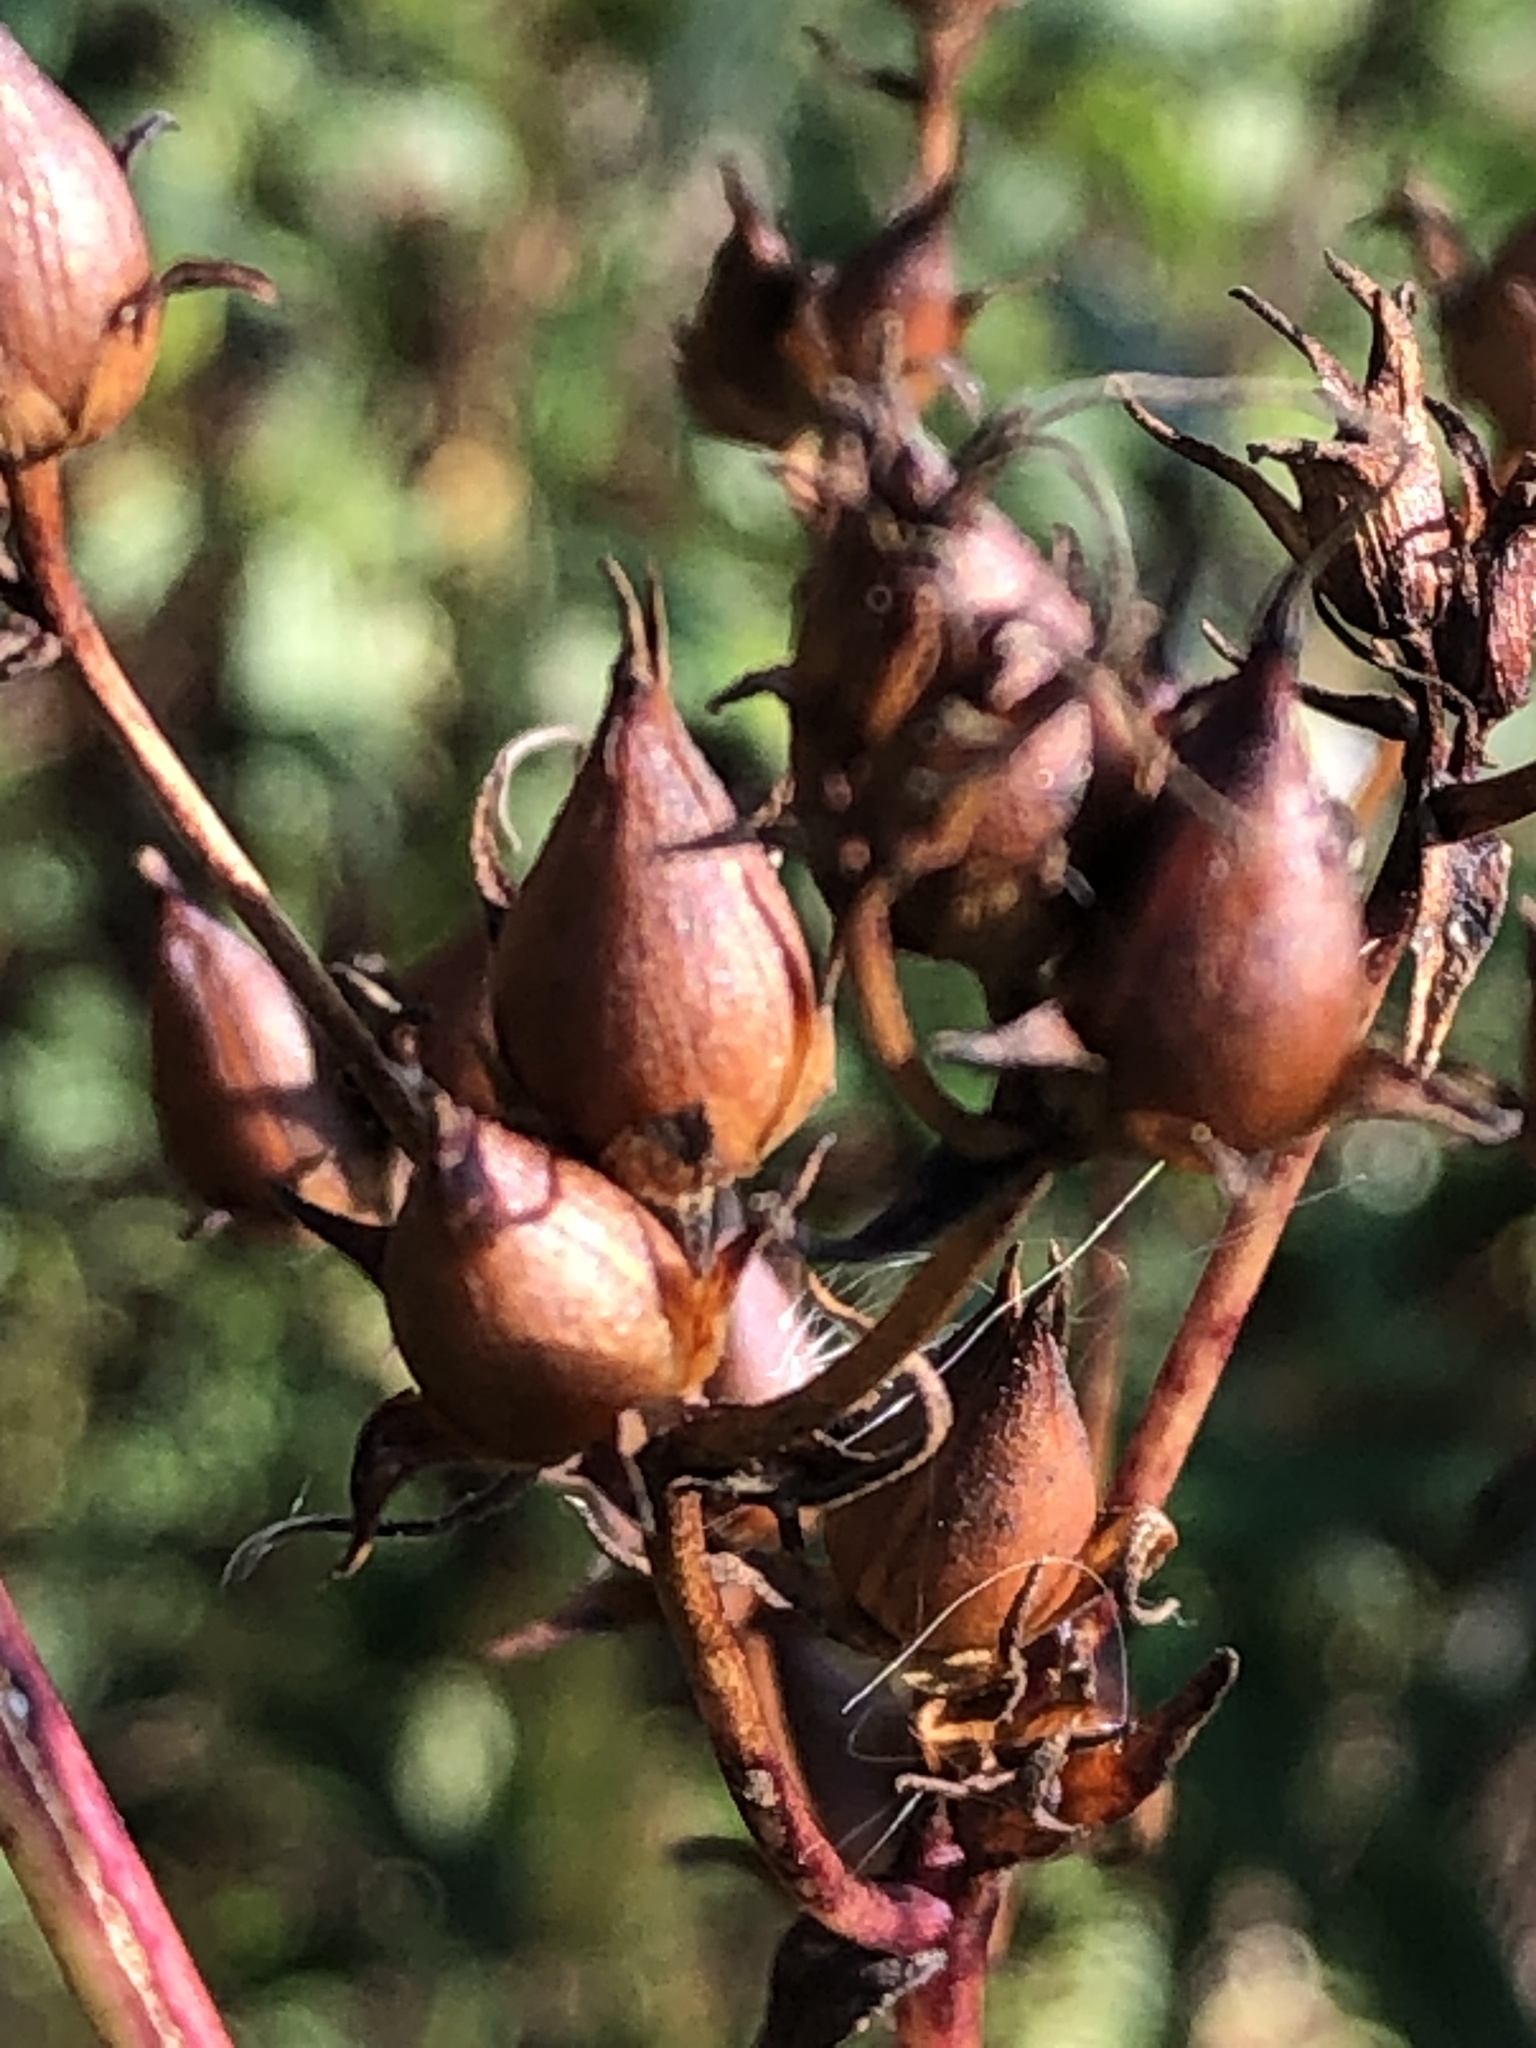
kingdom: Plantae
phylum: Tracheophyta
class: Magnoliopsida
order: Lamiales
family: Plantaginaceae
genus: Penstemon
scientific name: Penstemon digitalis
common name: Foxglove beardtongue
